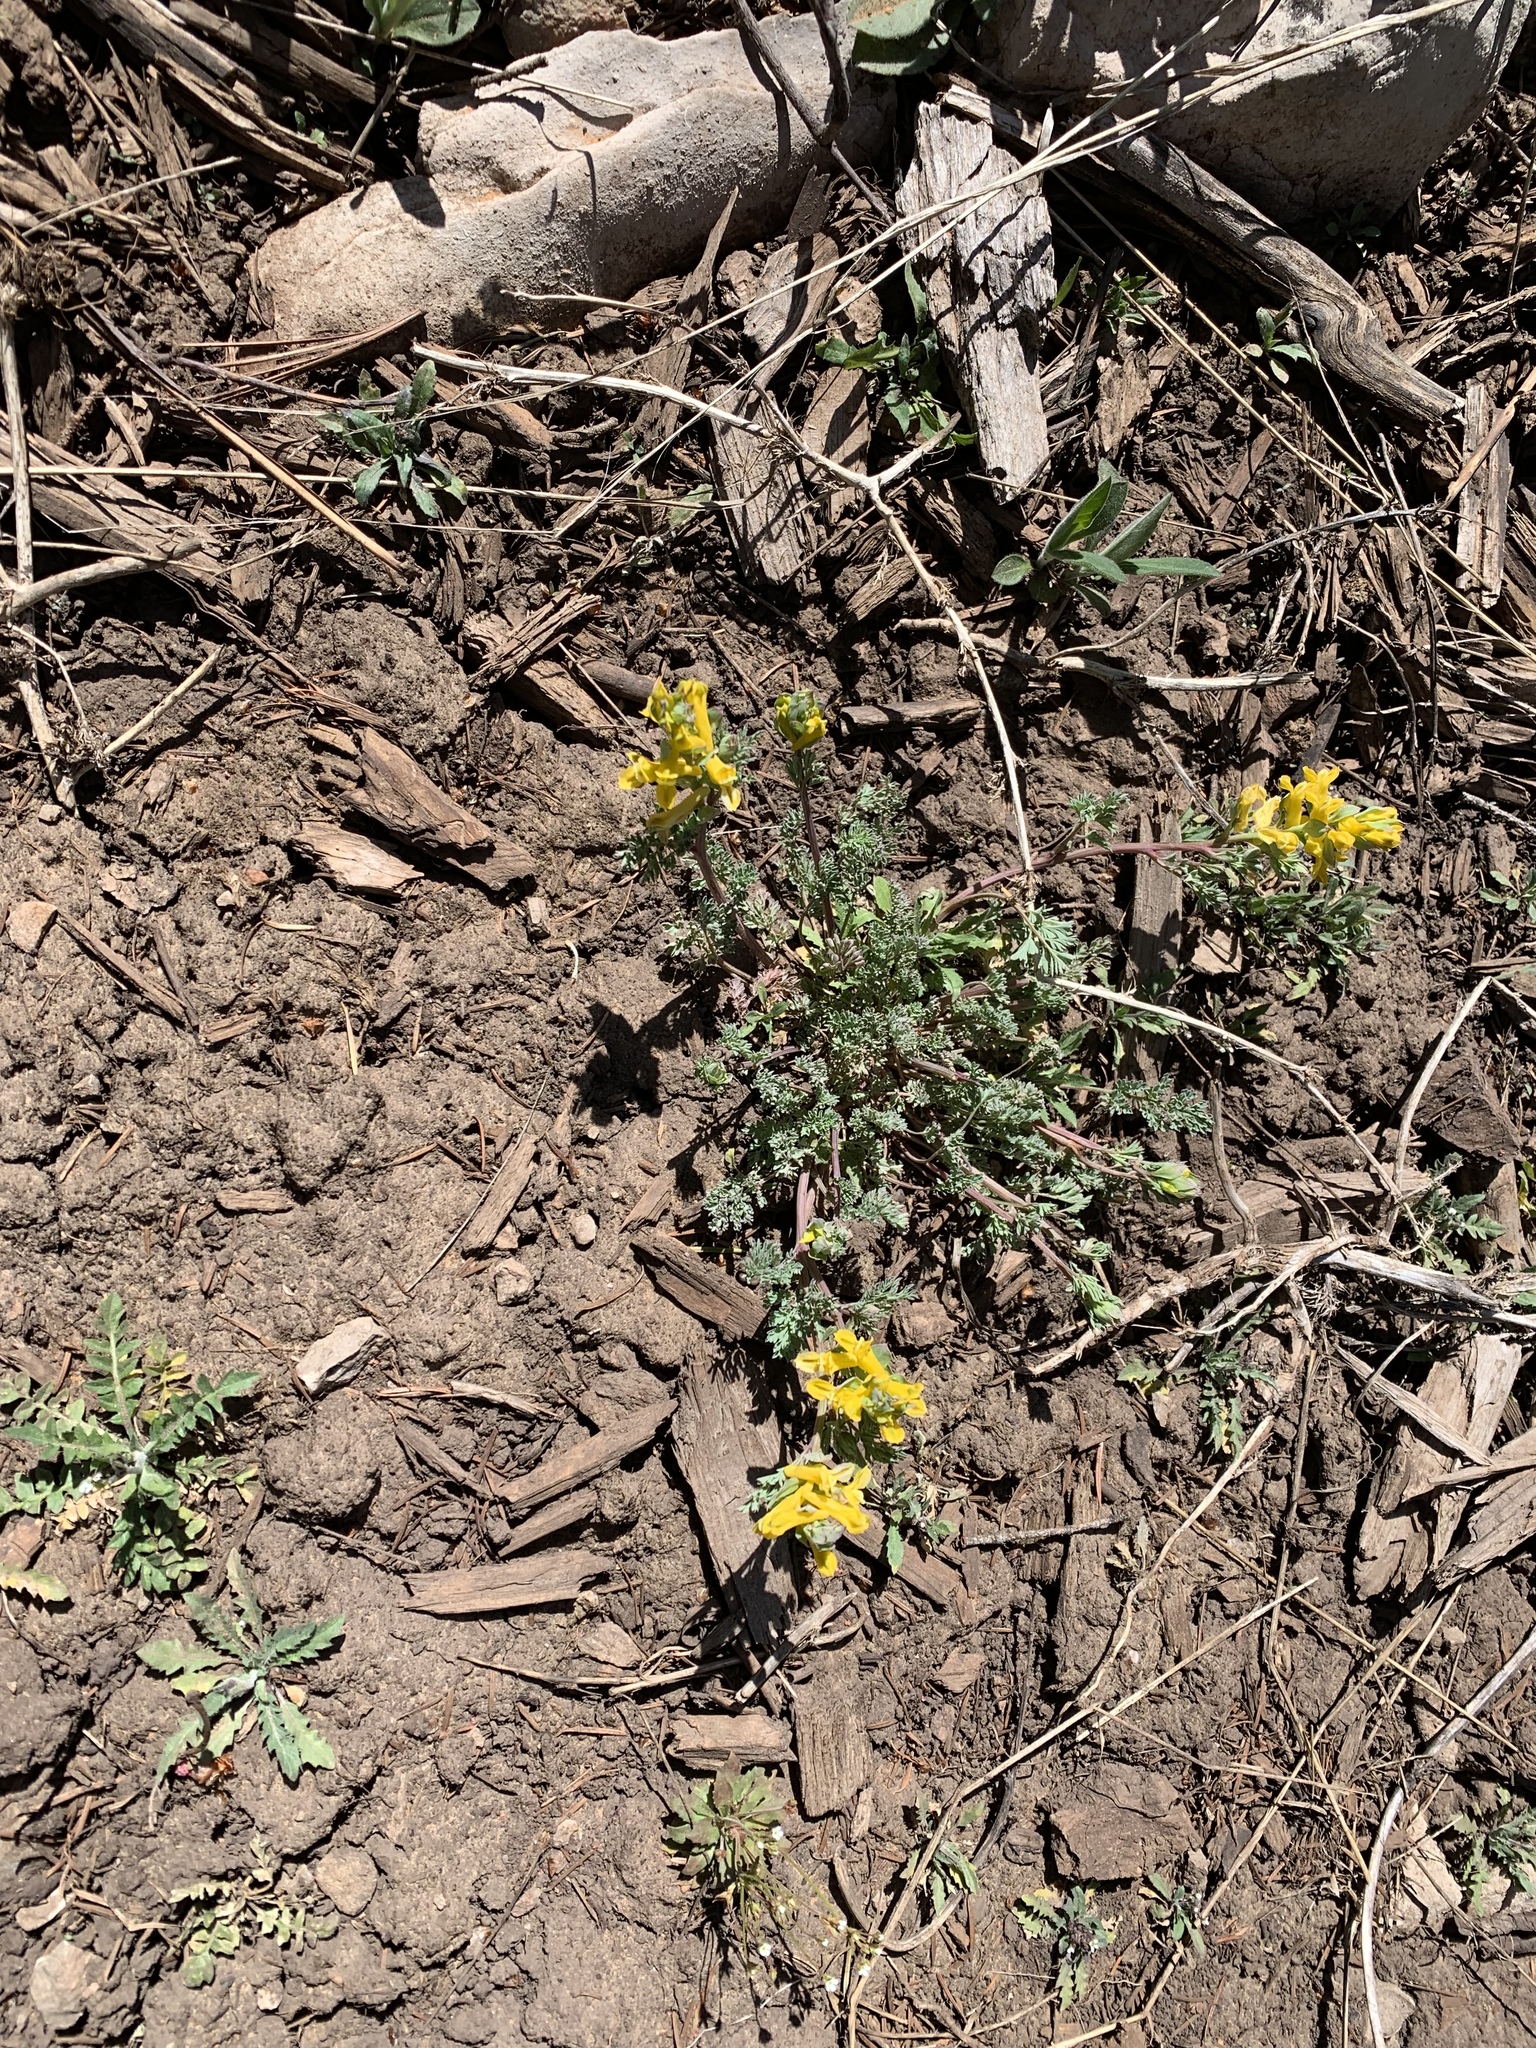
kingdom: Plantae
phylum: Tracheophyta
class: Magnoliopsida
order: Ranunculales
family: Papaveraceae
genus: Corydalis
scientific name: Corydalis aurea
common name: Golden corydalis
